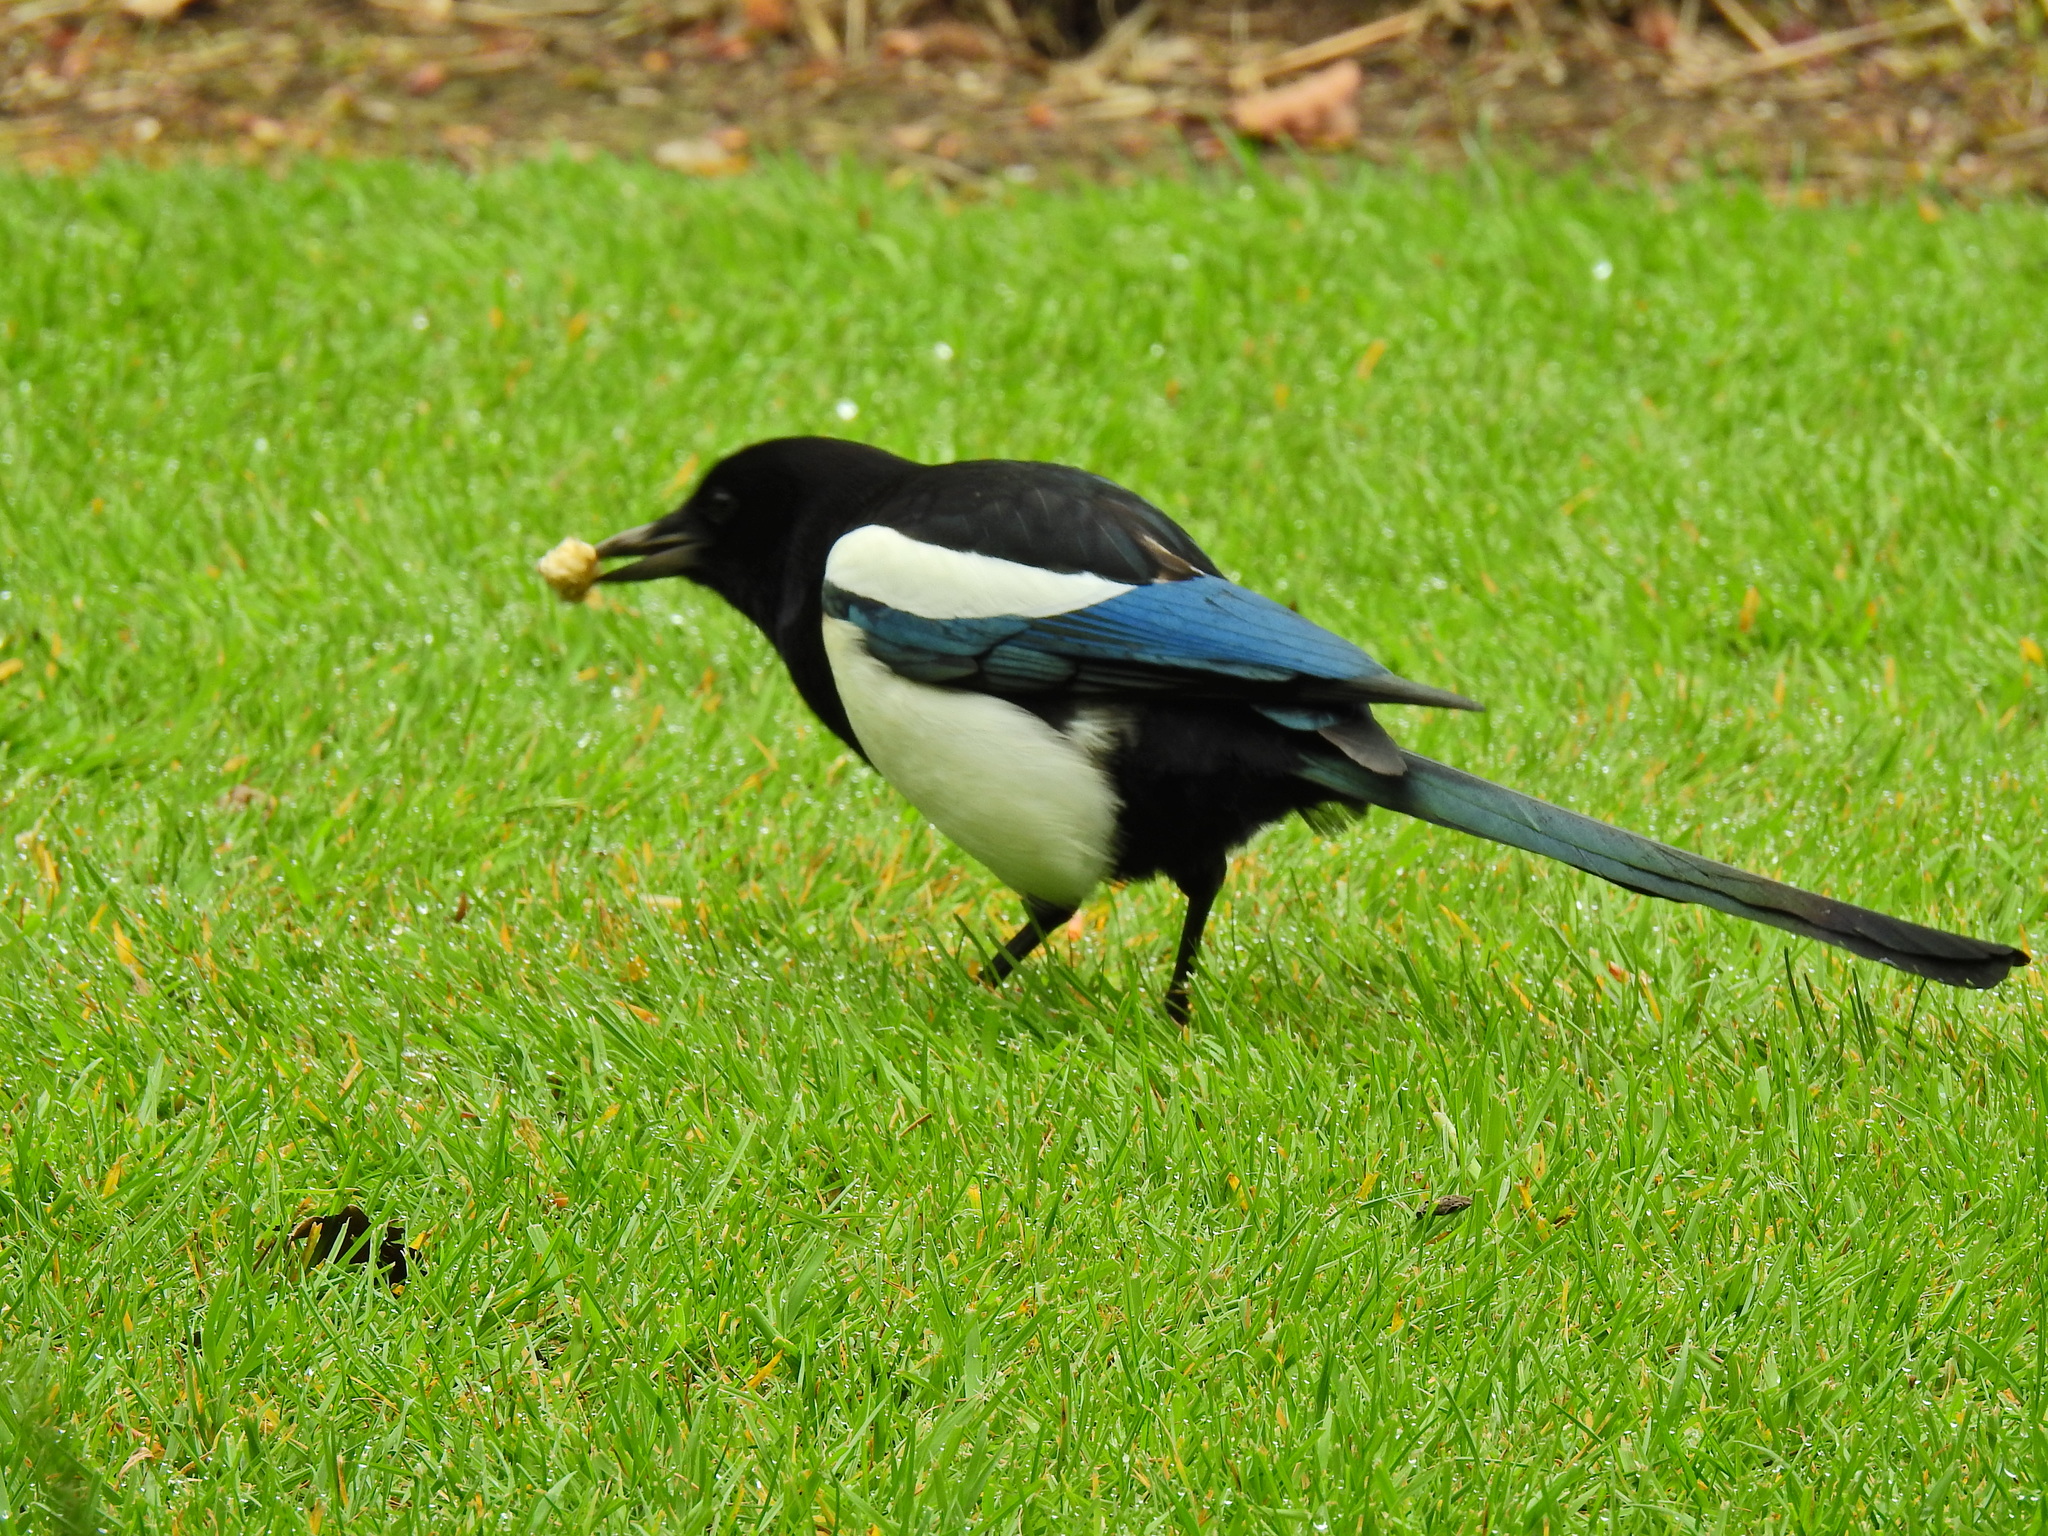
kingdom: Animalia
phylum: Chordata
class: Aves
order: Passeriformes
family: Corvidae
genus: Pica
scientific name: Pica pica
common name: Eurasian magpie
